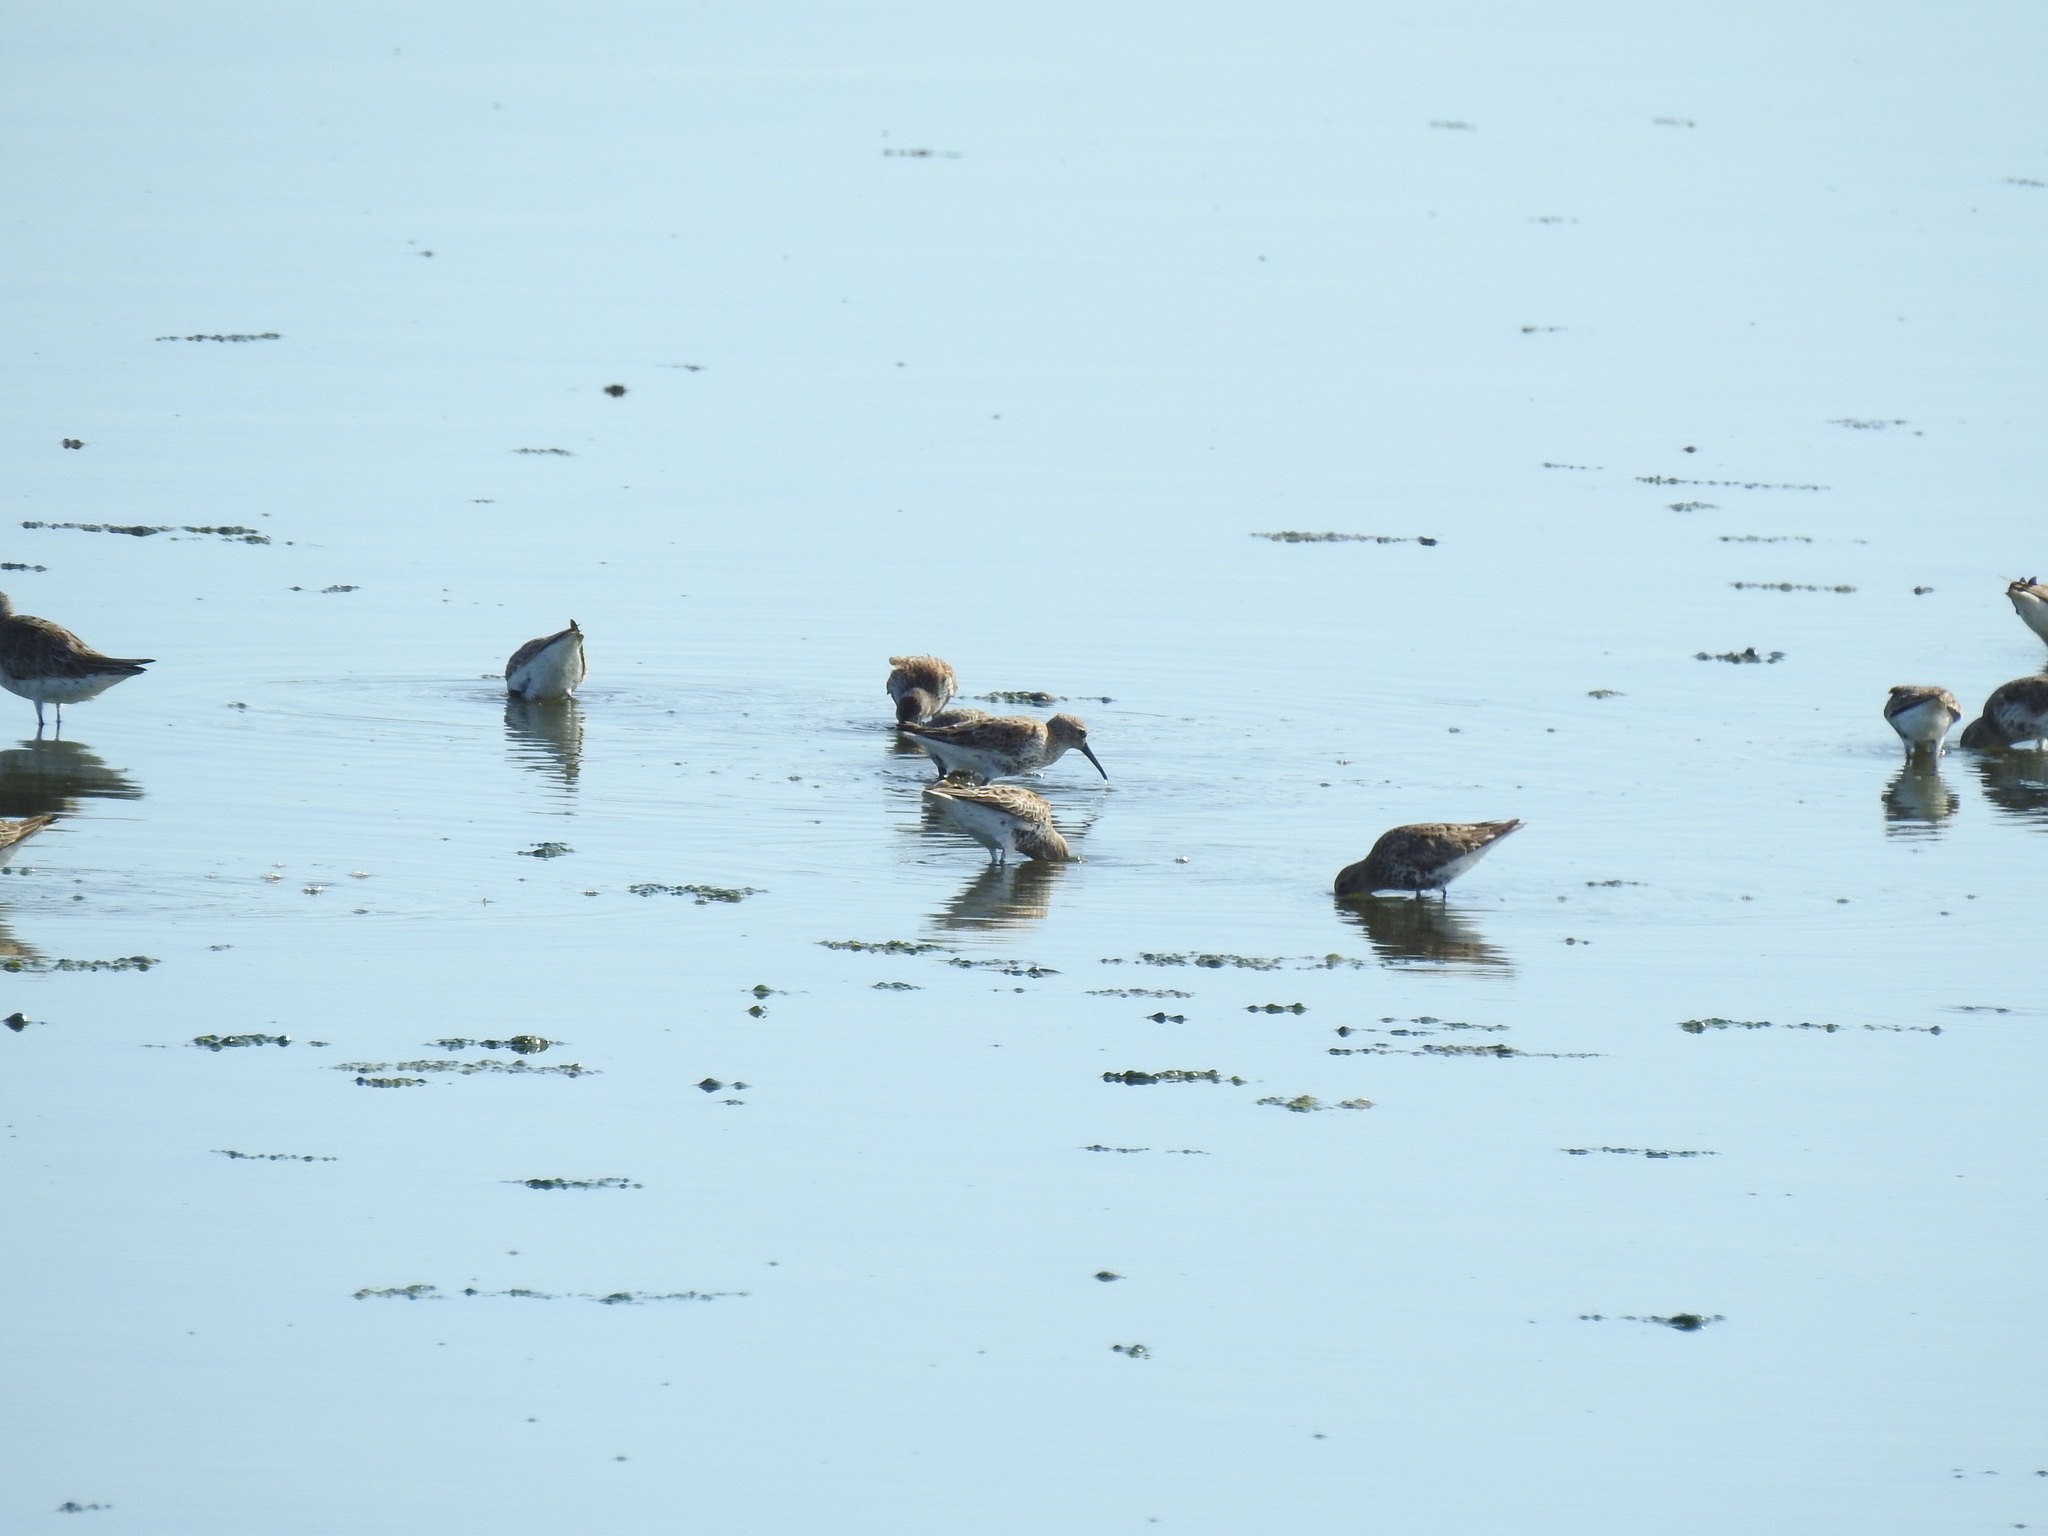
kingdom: Animalia
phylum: Chordata
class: Aves
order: Charadriiformes
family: Scolopacidae
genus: Calidris
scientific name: Calidris alpina
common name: Dunlin
